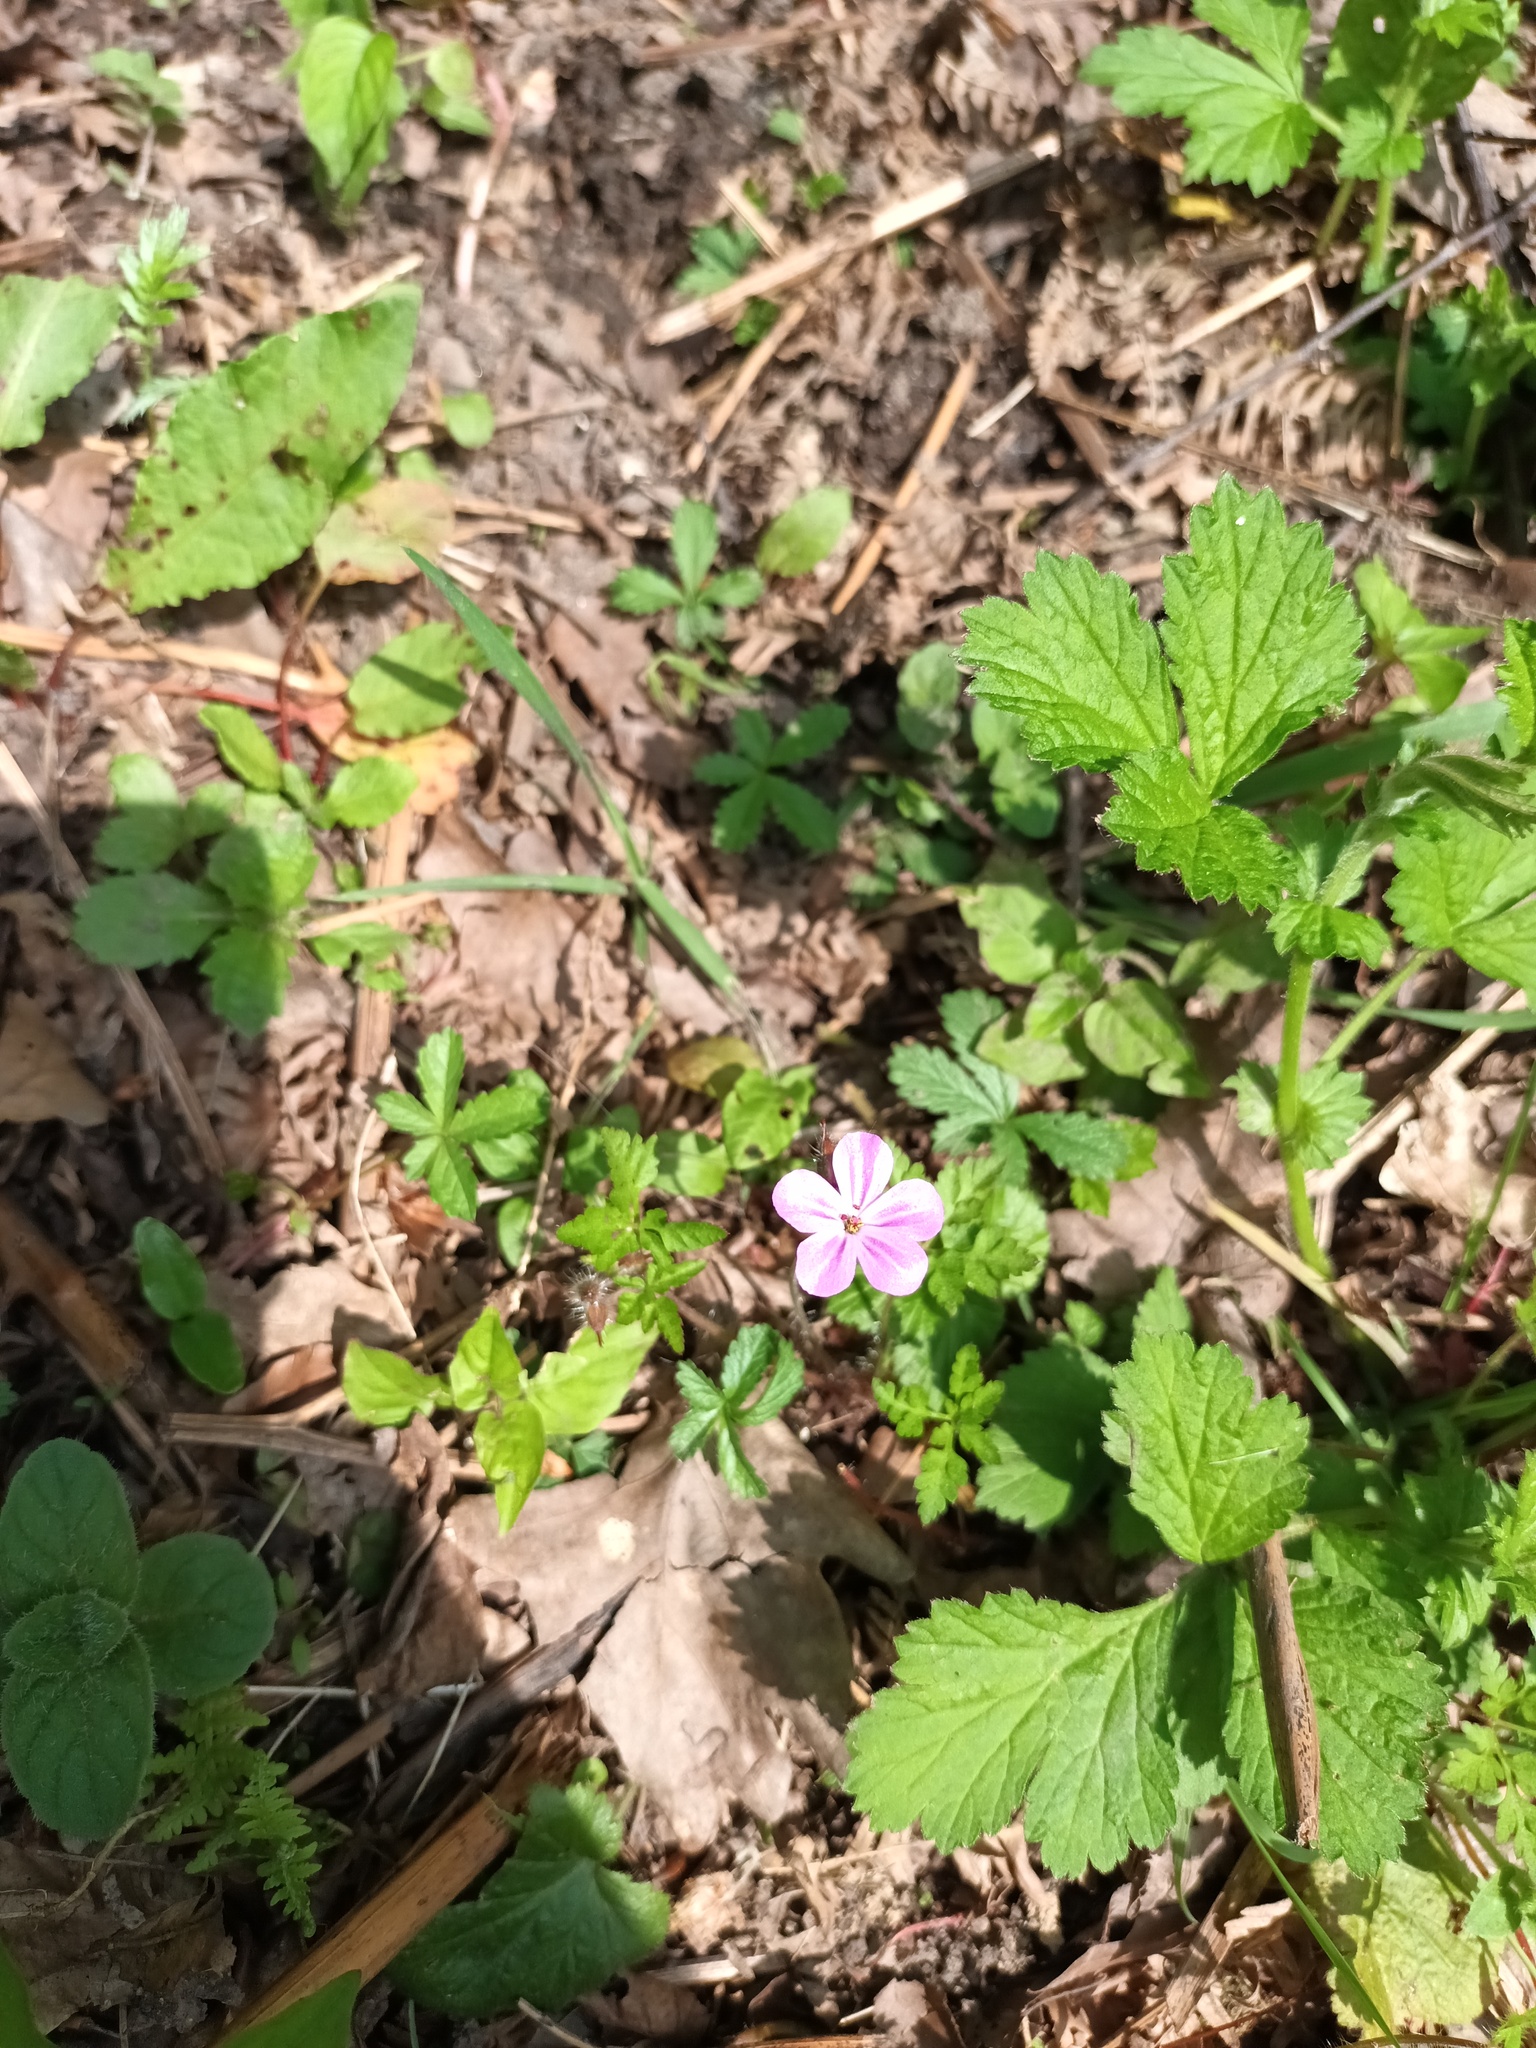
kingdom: Plantae
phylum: Tracheophyta
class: Magnoliopsida
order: Geraniales
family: Geraniaceae
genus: Geranium
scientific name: Geranium robertianum
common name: Herb-robert
